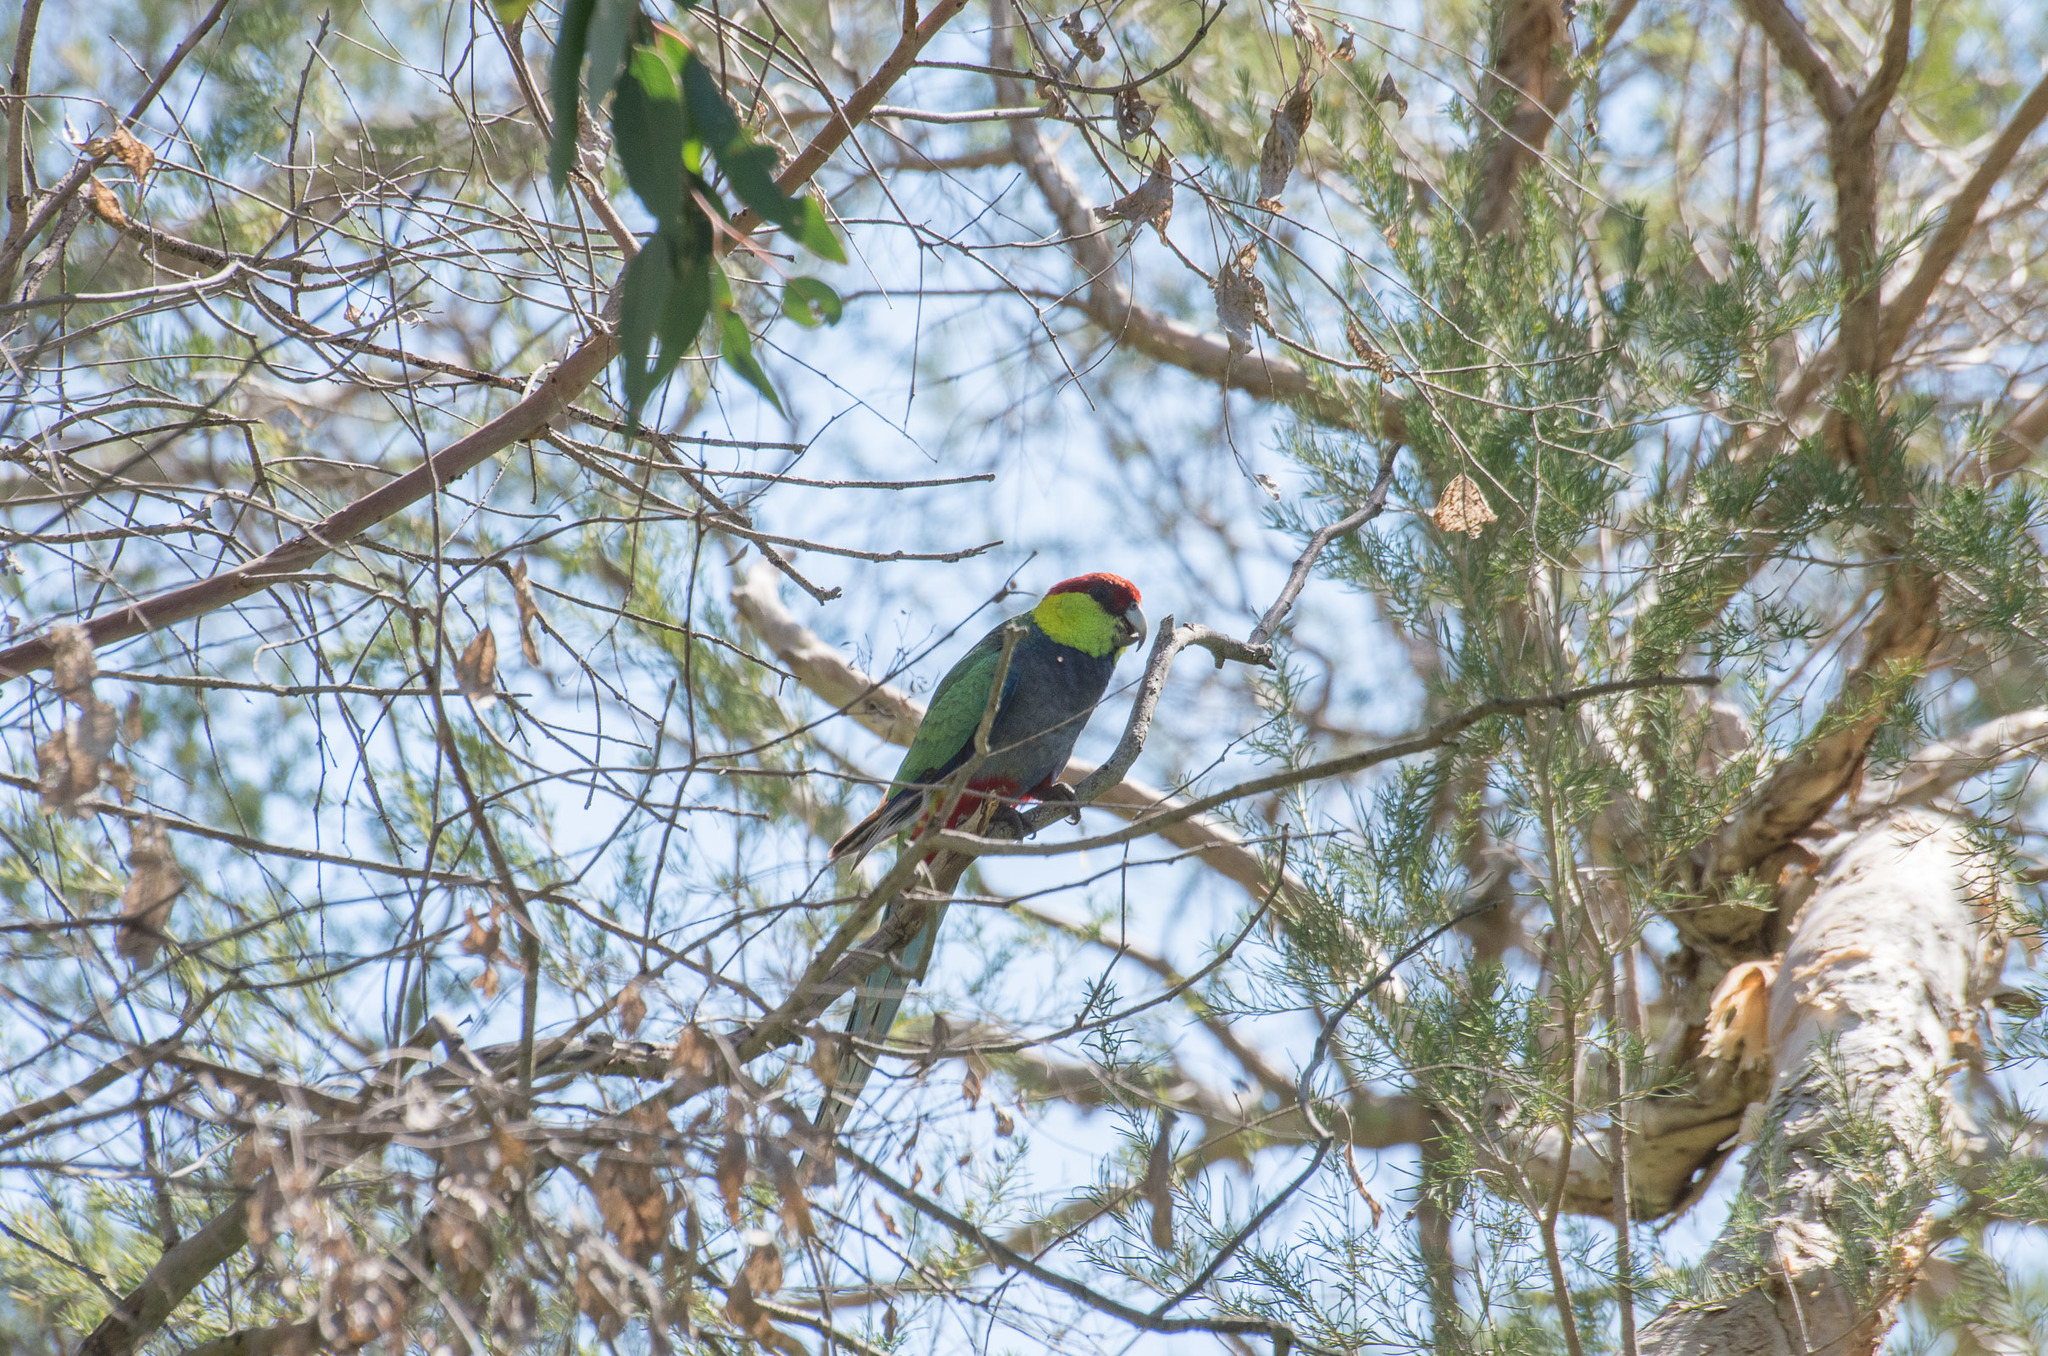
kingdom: Animalia
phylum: Chordata
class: Aves
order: Psittaciformes
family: Psittacidae
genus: Purpureicephalus
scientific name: Purpureicephalus spurius
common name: Red-capped parrot
